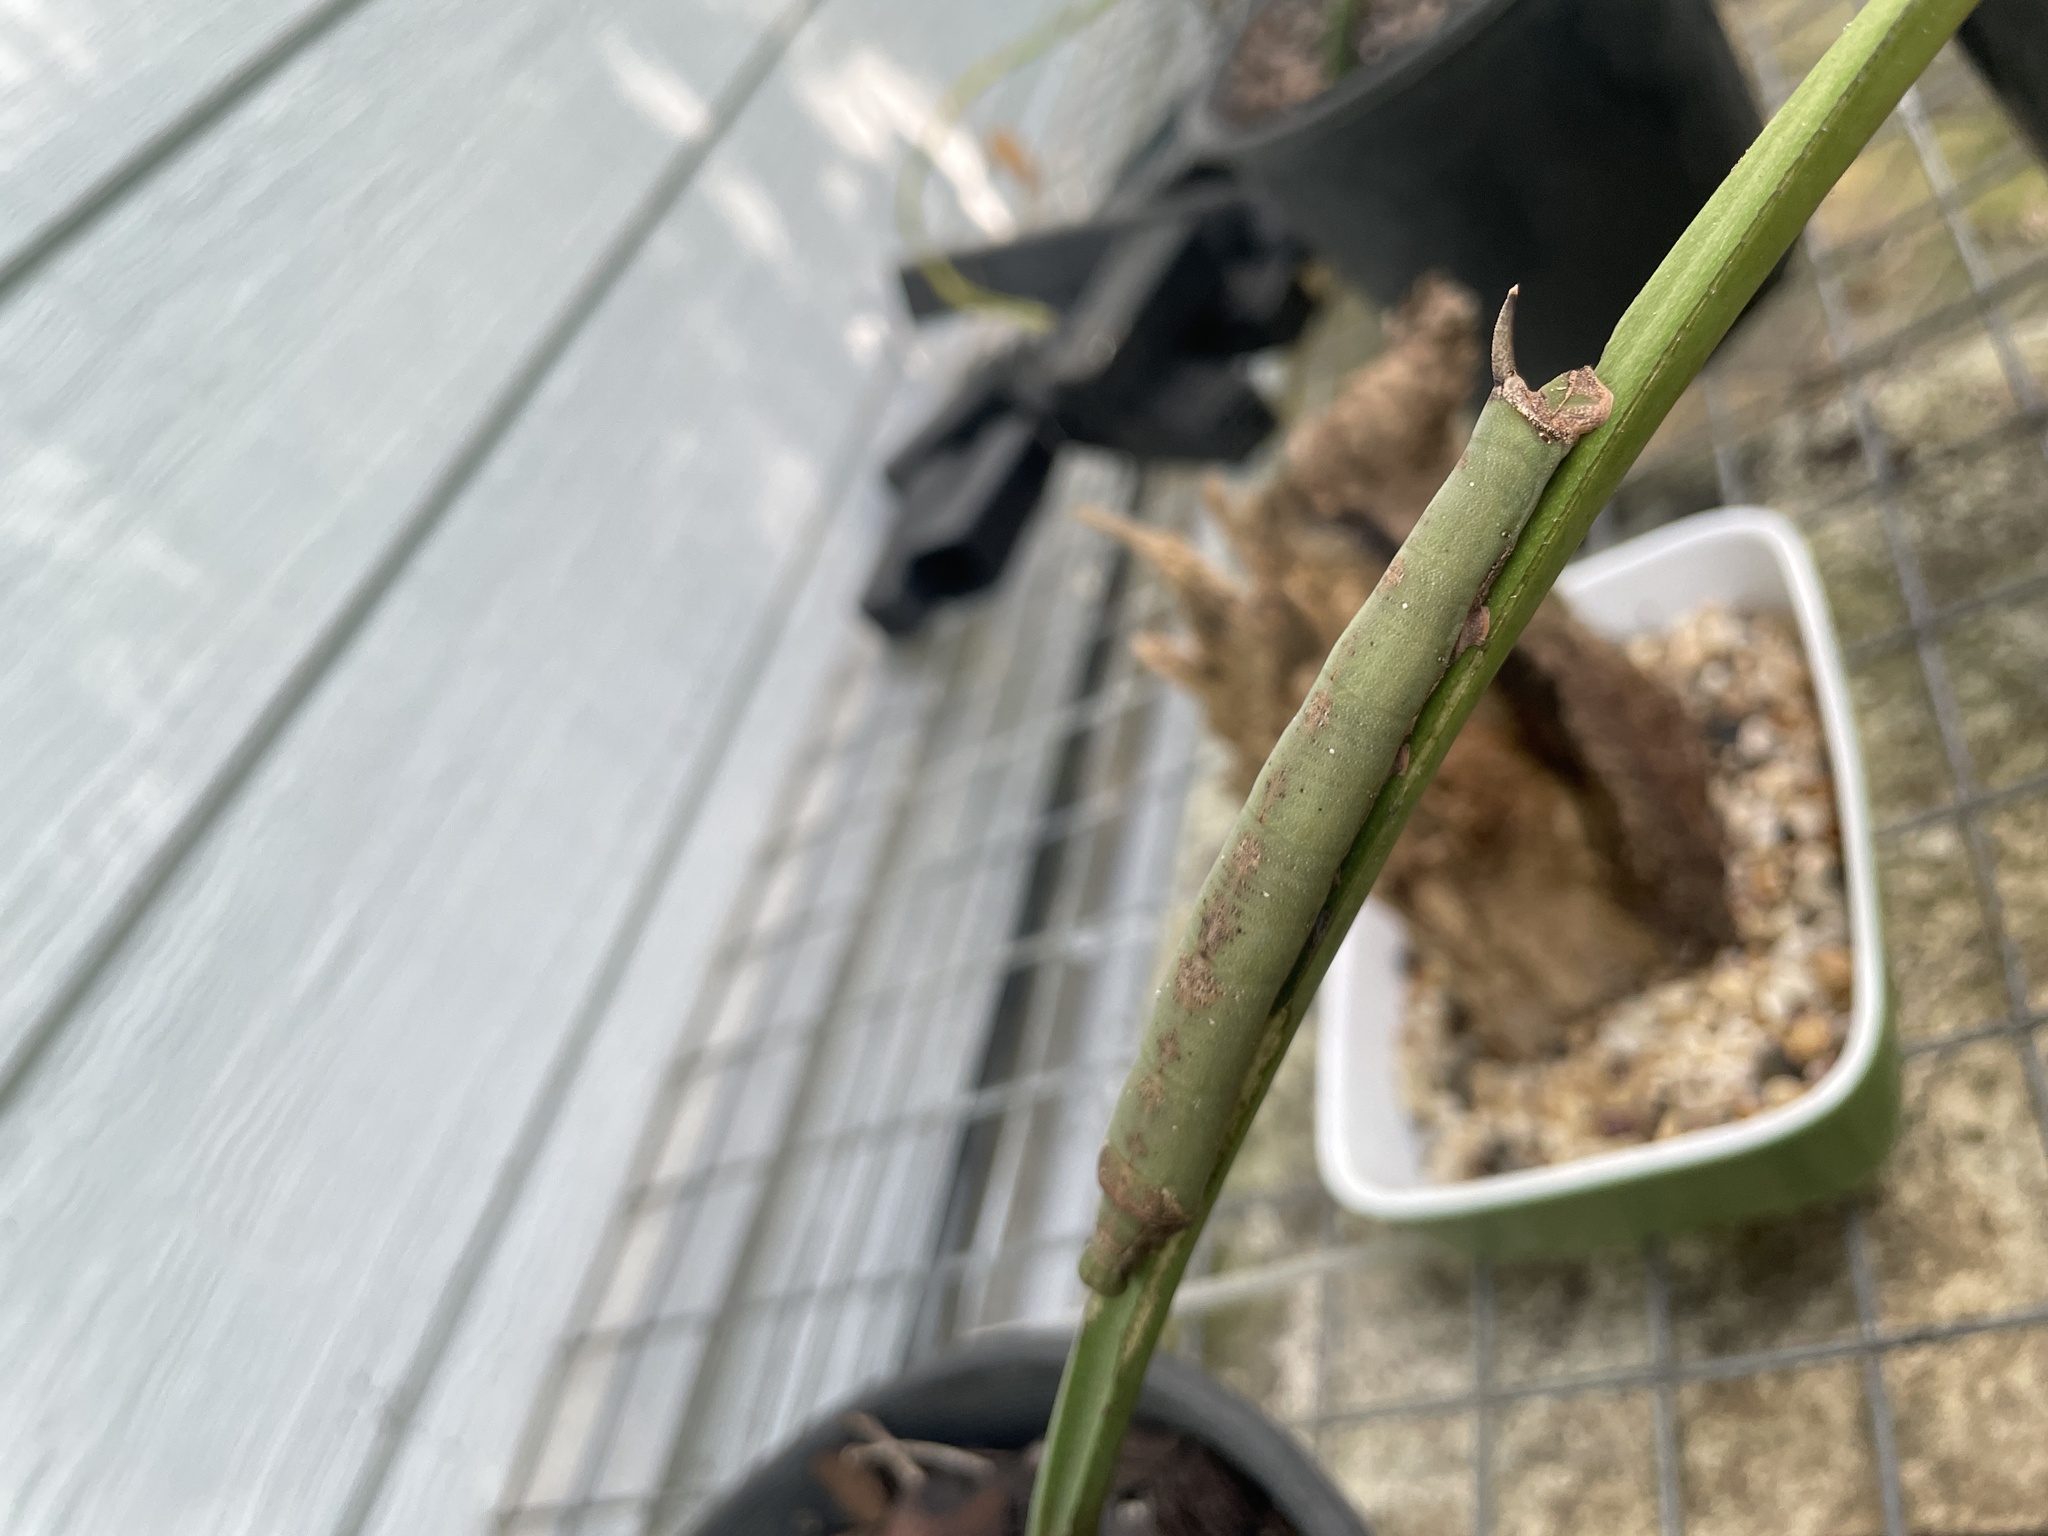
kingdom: Animalia
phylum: Arthropoda
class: Insecta
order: Lepidoptera
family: Sphingidae
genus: Eupanacra
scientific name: Eupanacra splendens
